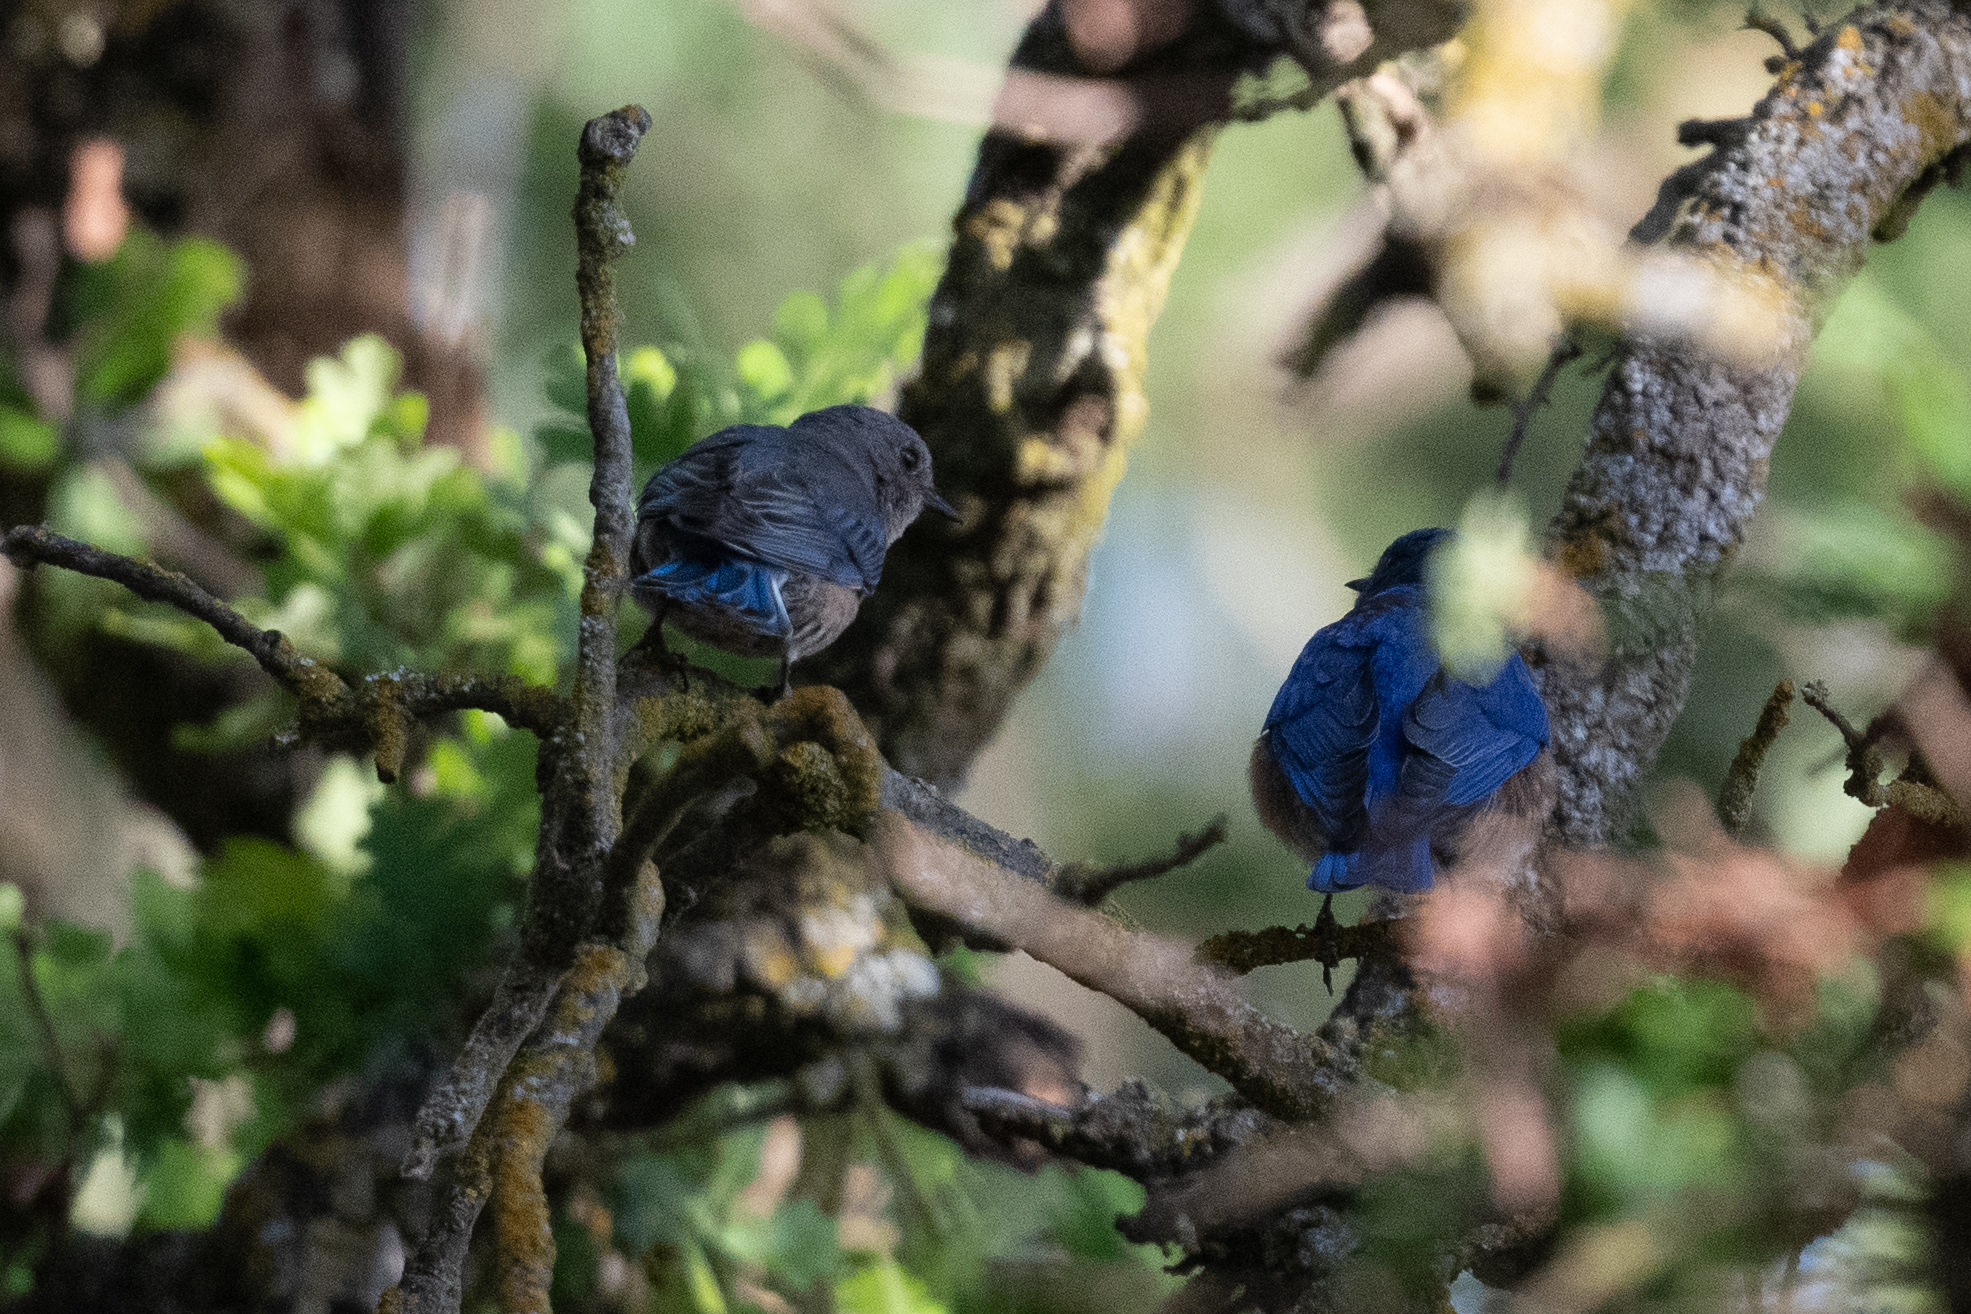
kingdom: Animalia
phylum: Chordata
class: Aves
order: Passeriformes
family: Turdidae
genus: Sialia
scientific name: Sialia mexicana
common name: Western bluebird
